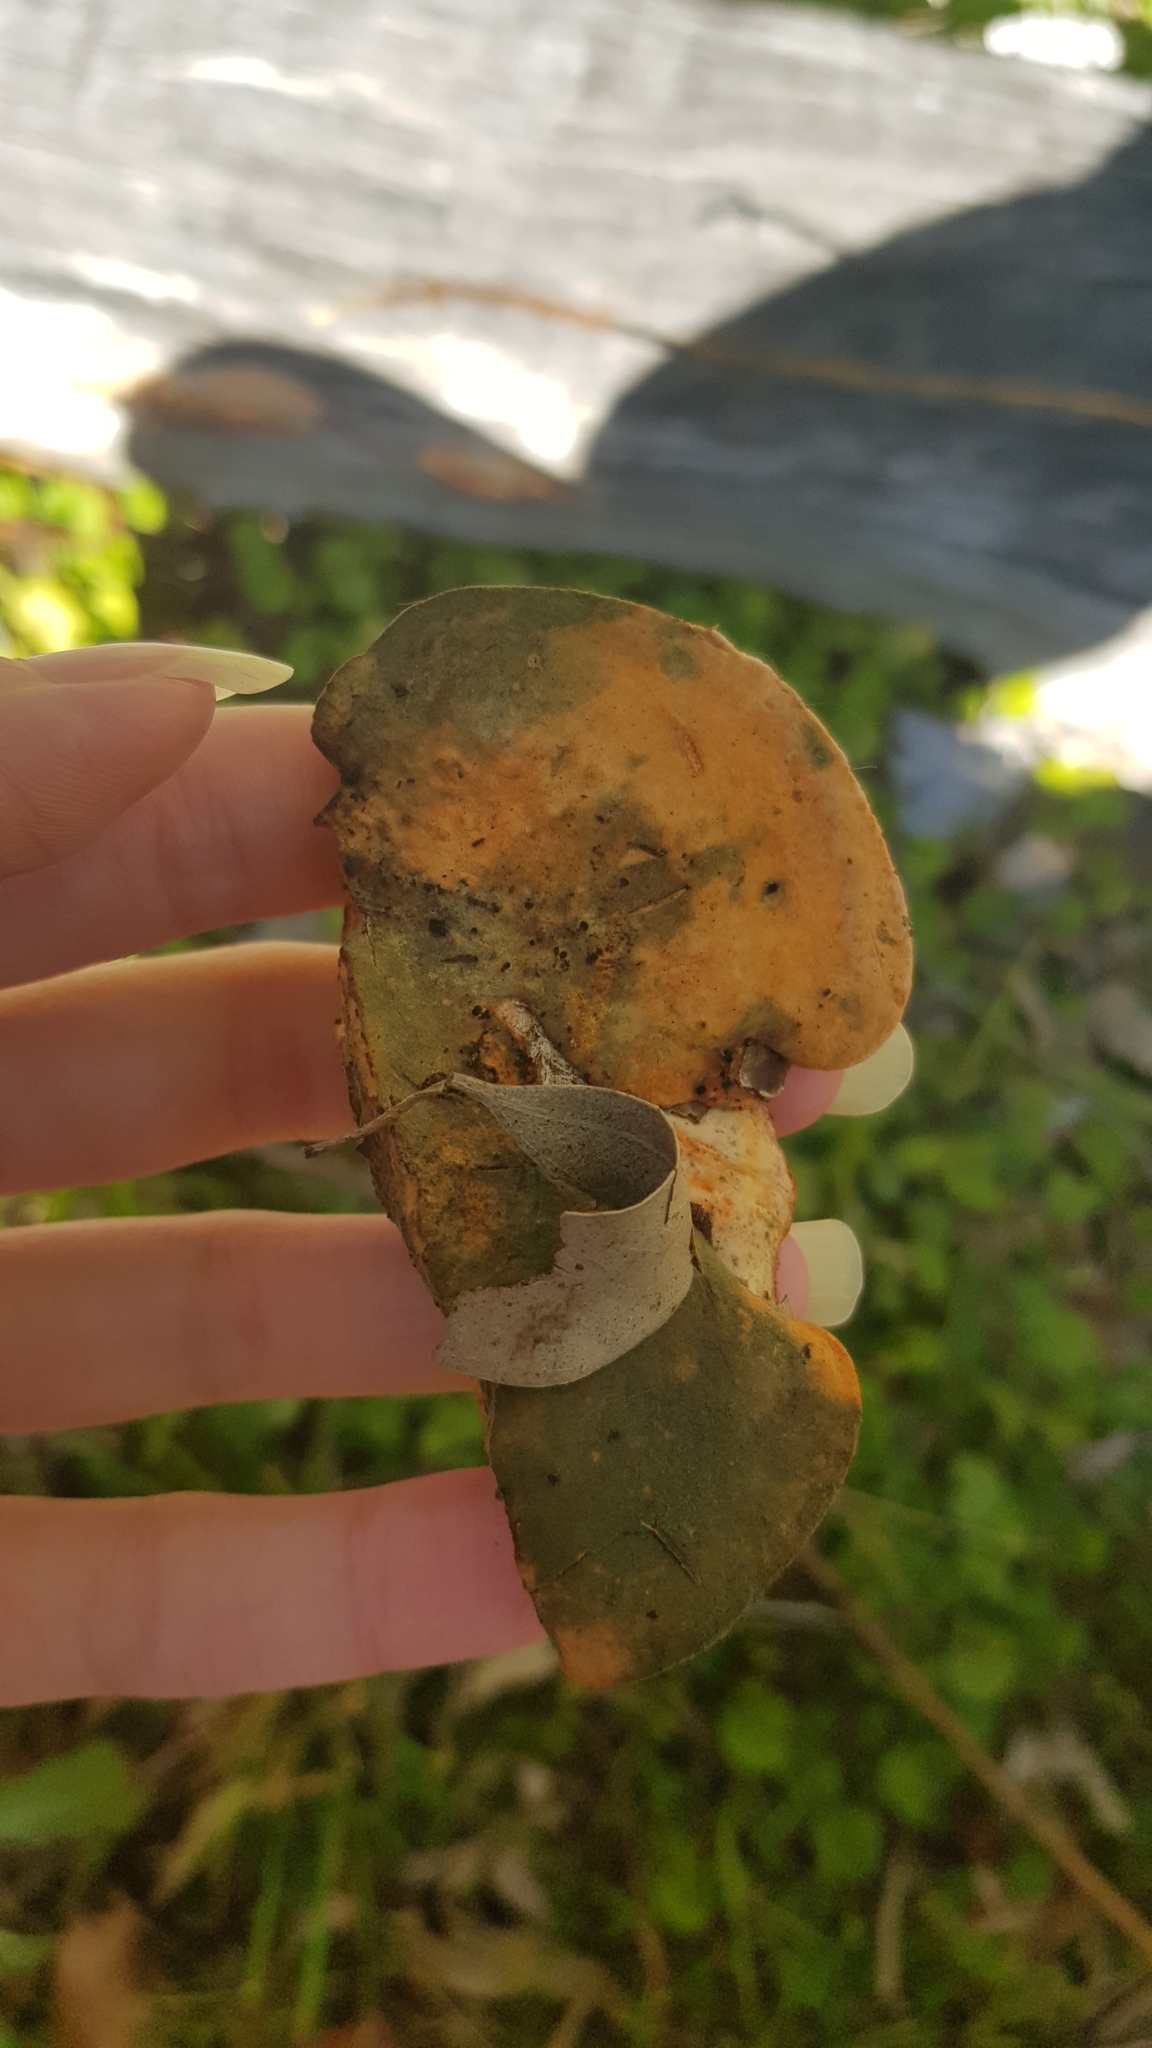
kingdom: Fungi
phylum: Basidiomycota
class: Agaricomycetes
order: Polyporales
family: Polyporaceae
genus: Trametes
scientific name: Trametes coccinea
